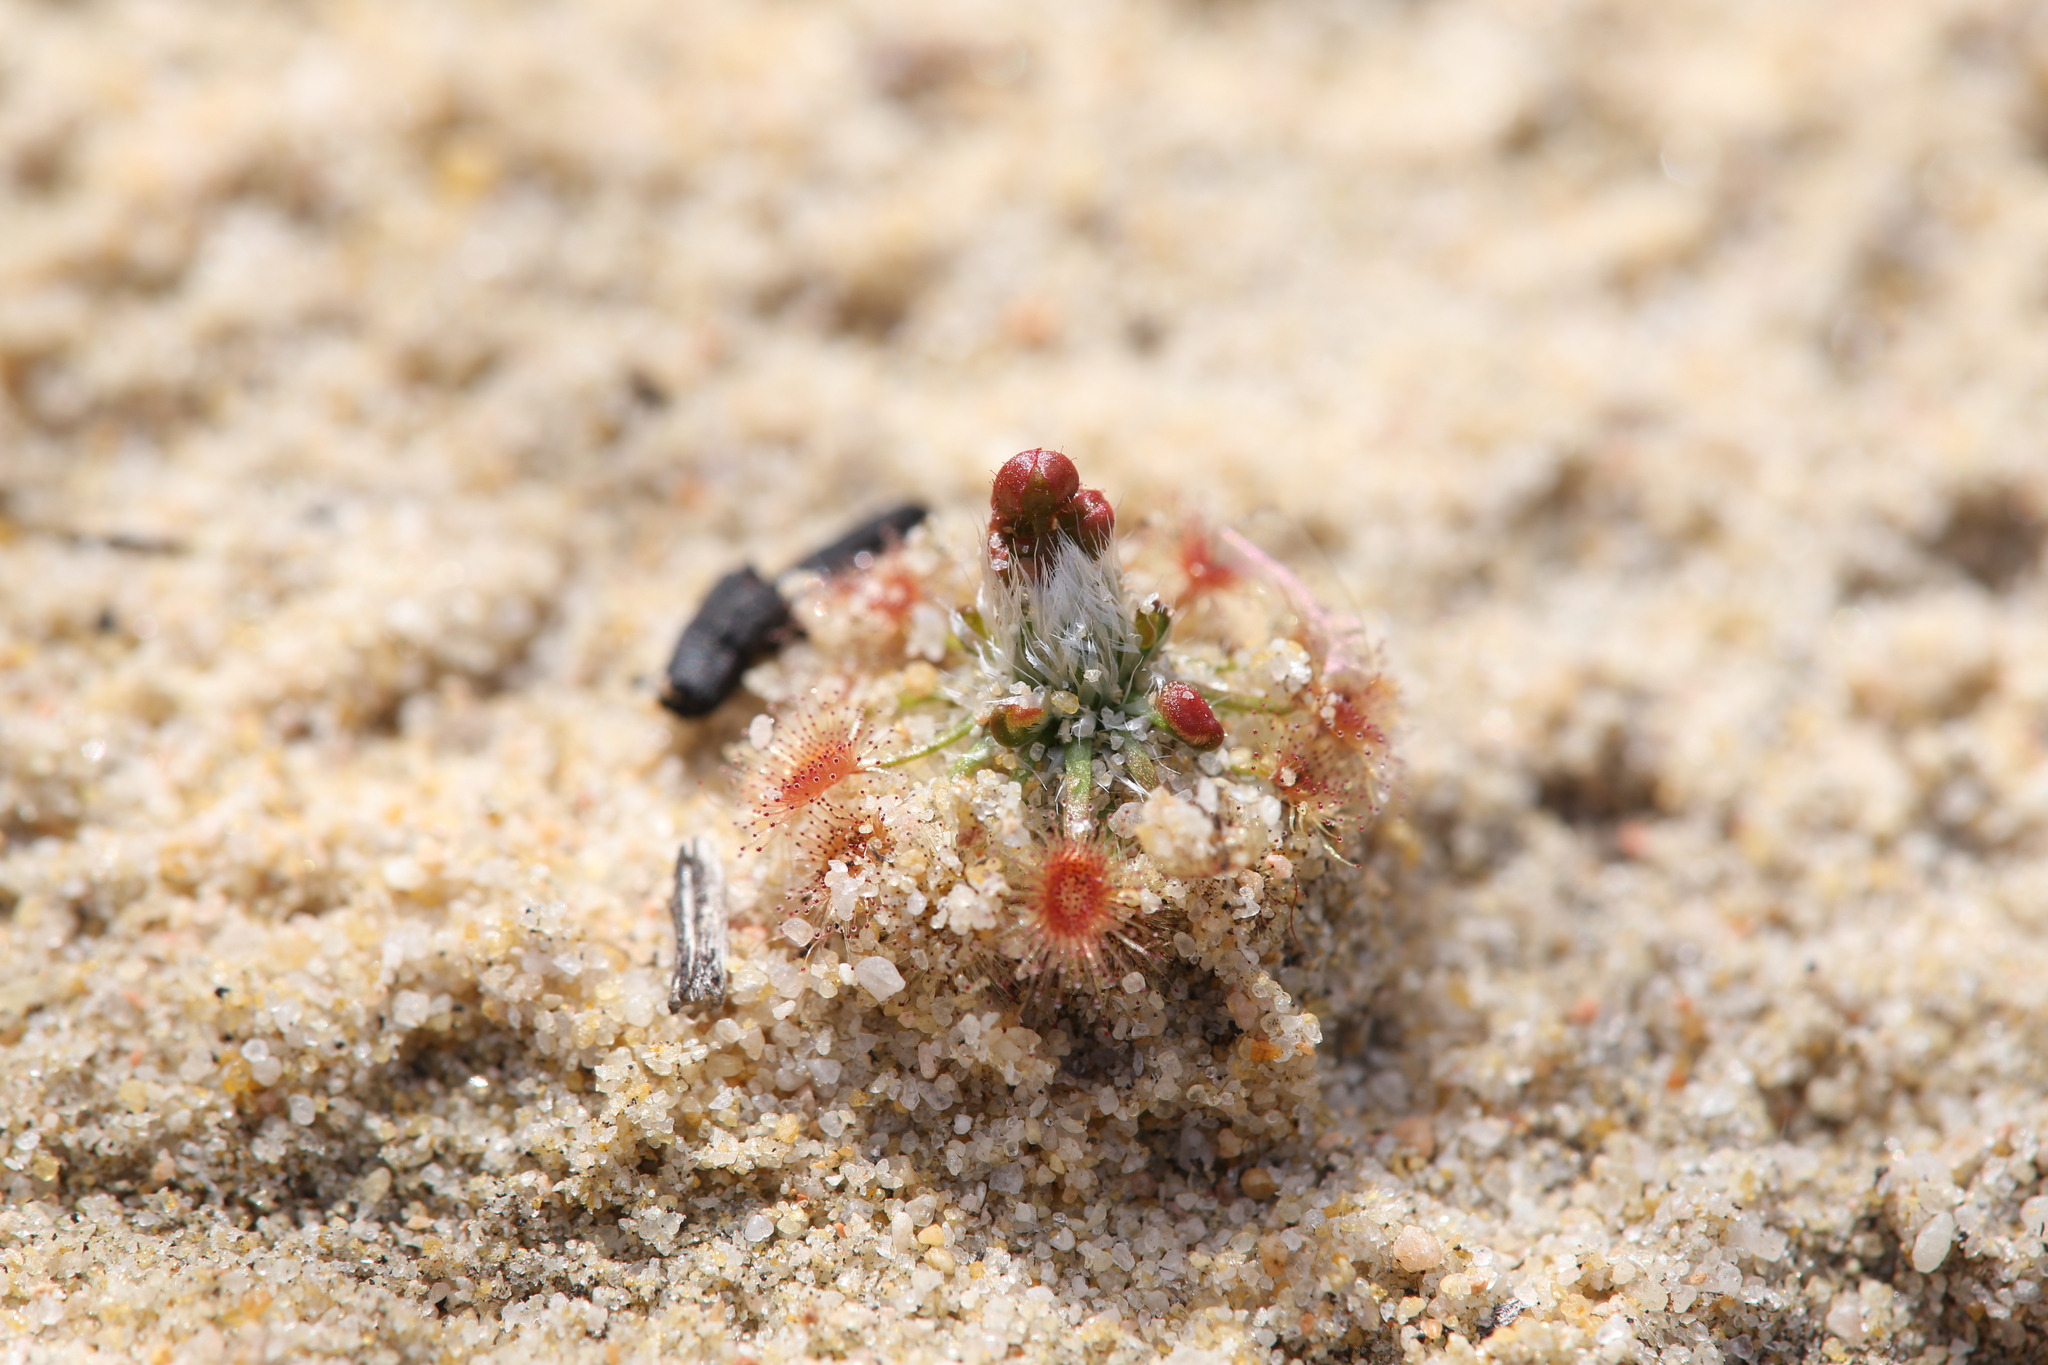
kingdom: Plantae
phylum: Tracheophyta
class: Magnoliopsida
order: Caryophyllales
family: Droseraceae
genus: Drosera
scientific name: Drosera citrina
